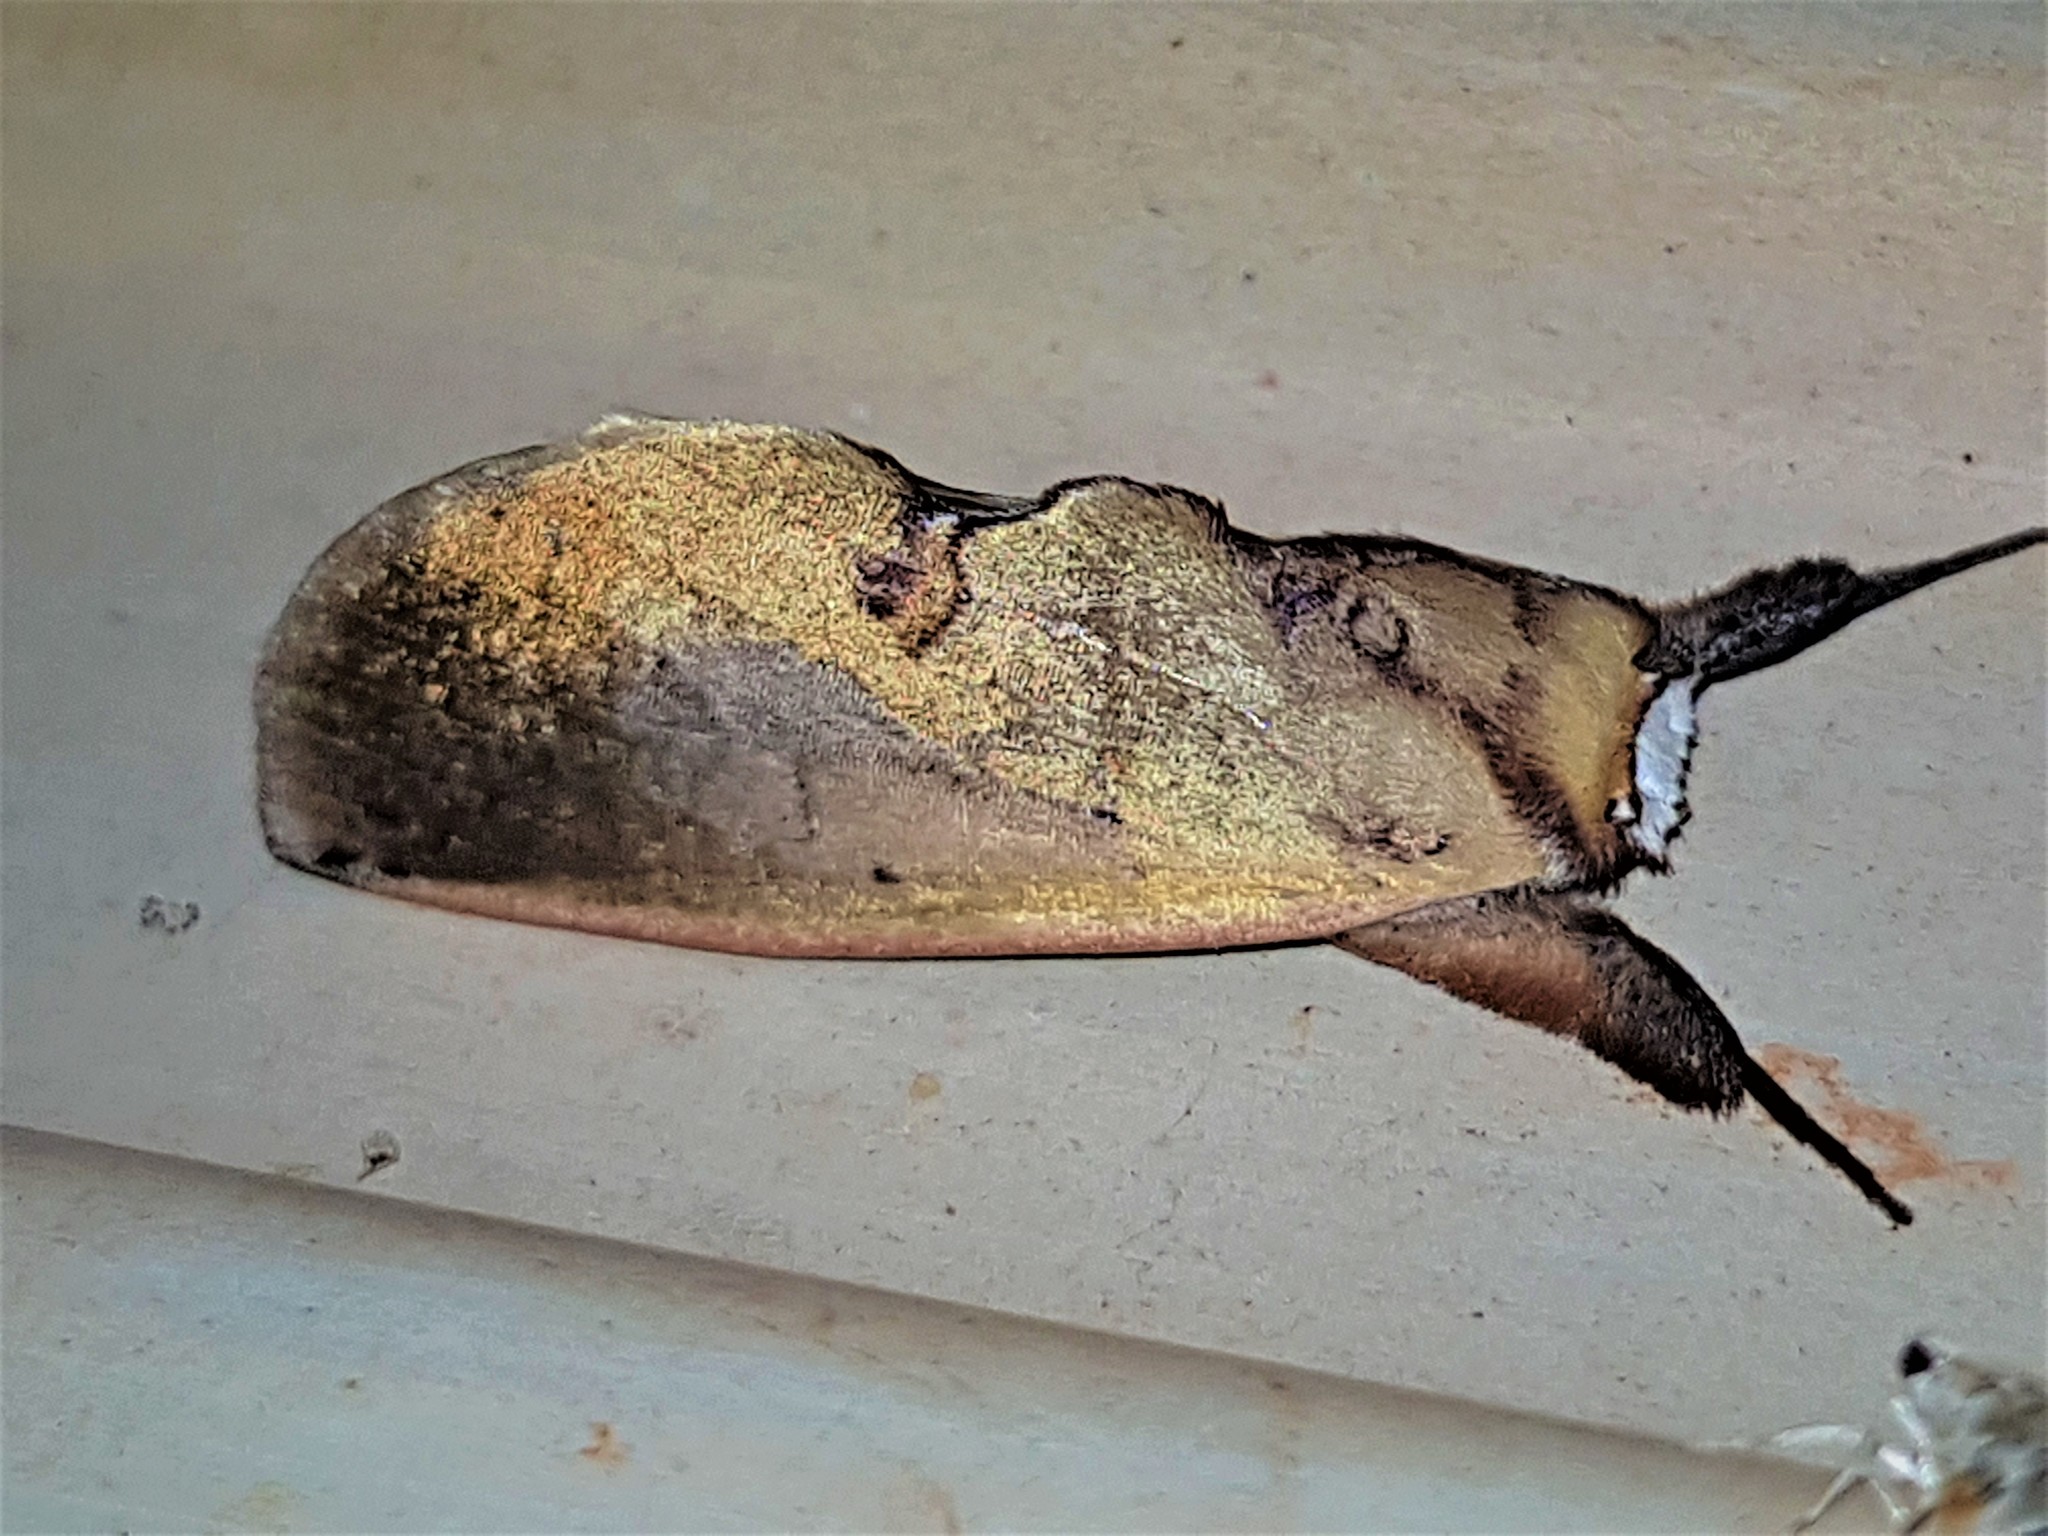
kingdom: Animalia
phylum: Arthropoda
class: Insecta
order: Lepidoptera
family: Notodontidae
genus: Hemiceras
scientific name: Hemiceras metallescens
